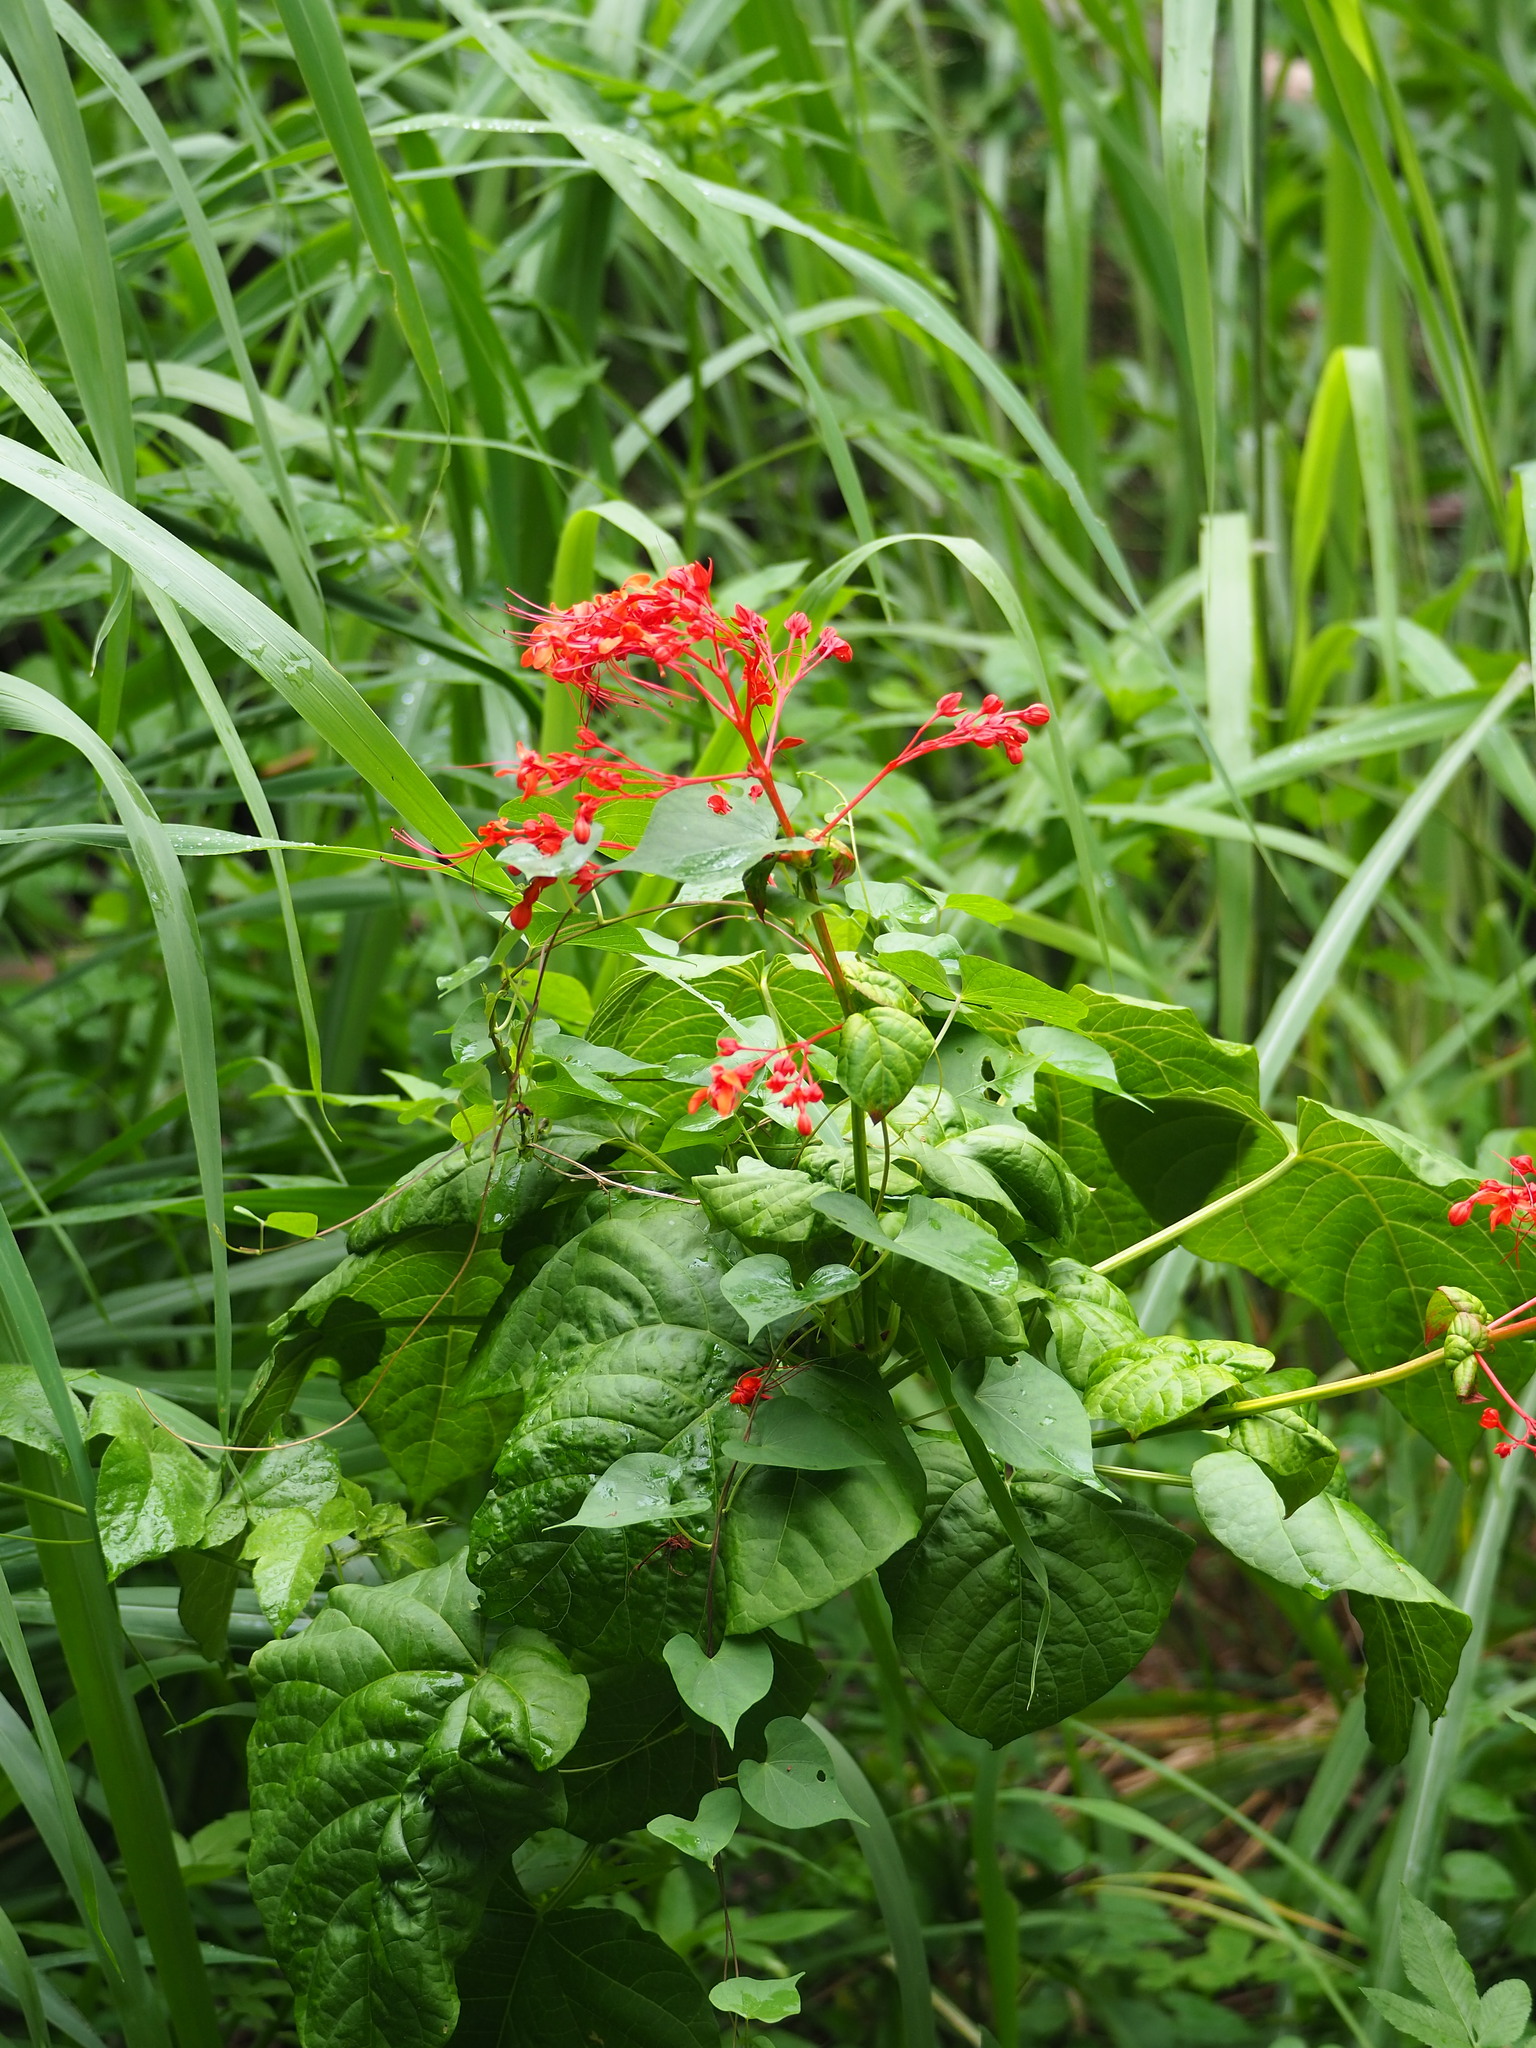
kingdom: Plantae
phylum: Tracheophyta
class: Magnoliopsida
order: Lamiales
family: Lamiaceae
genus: Clerodendrum
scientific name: Clerodendrum japonicum
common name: Japanese glorybower
